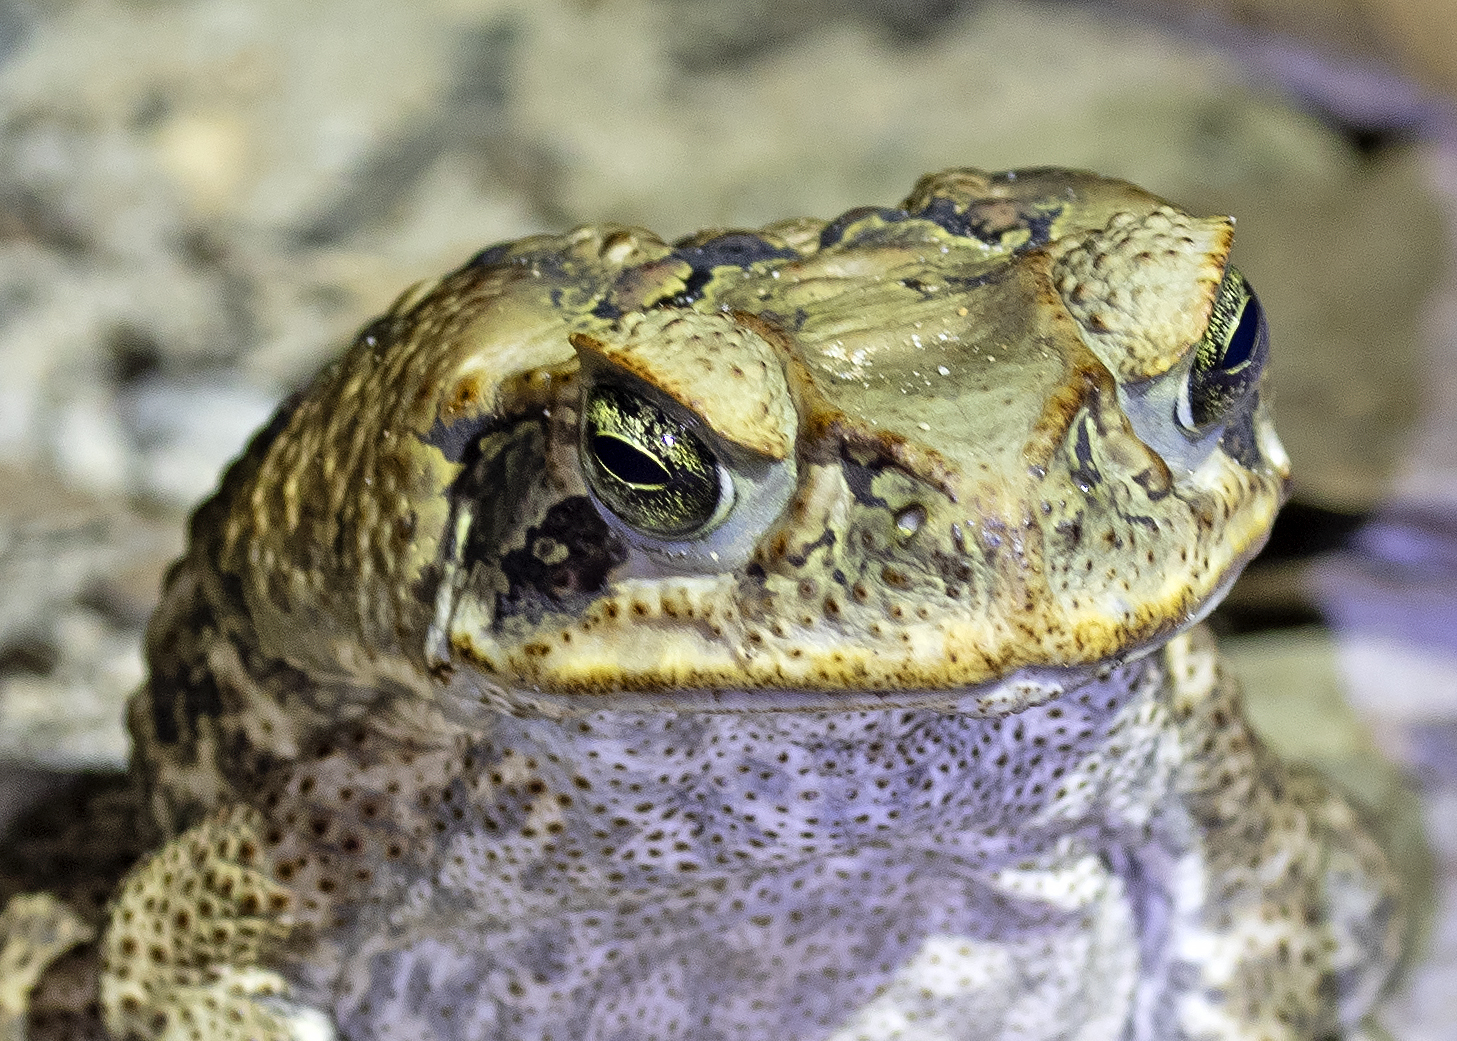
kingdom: Animalia
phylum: Chordata
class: Amphibia
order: Anura
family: Bufonidae
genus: Rhinella
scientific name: Rhinella marina
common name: Cane toad
